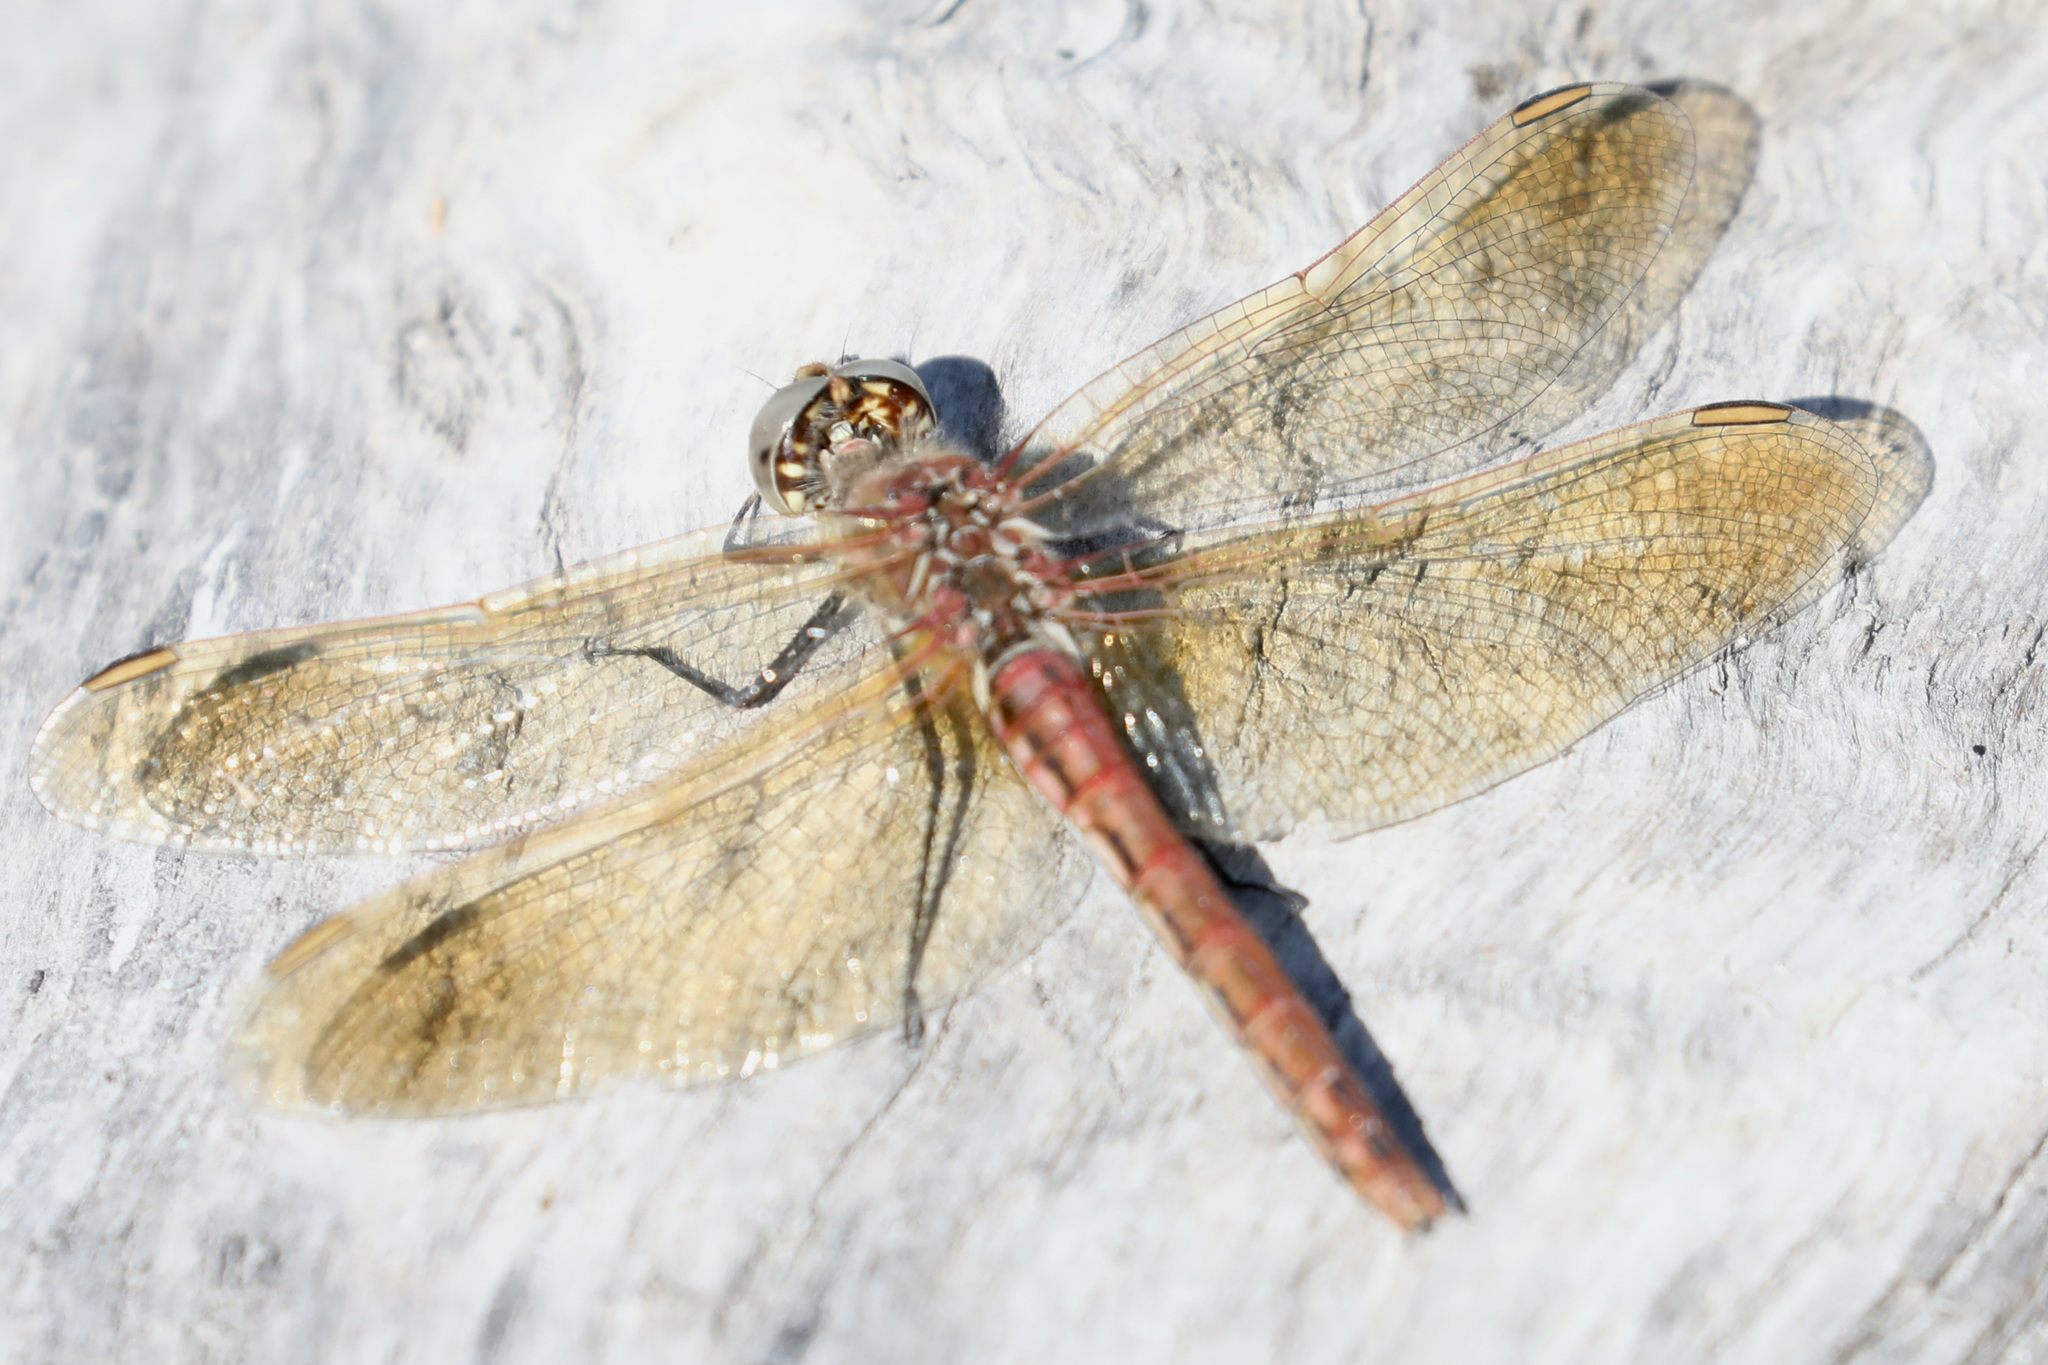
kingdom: Animalia
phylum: Arthropoda
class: Insecta
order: Odonata
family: Libellulidae
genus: Sympetrum
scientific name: Sympetrum madidum
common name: Red-veined meadowhawk
